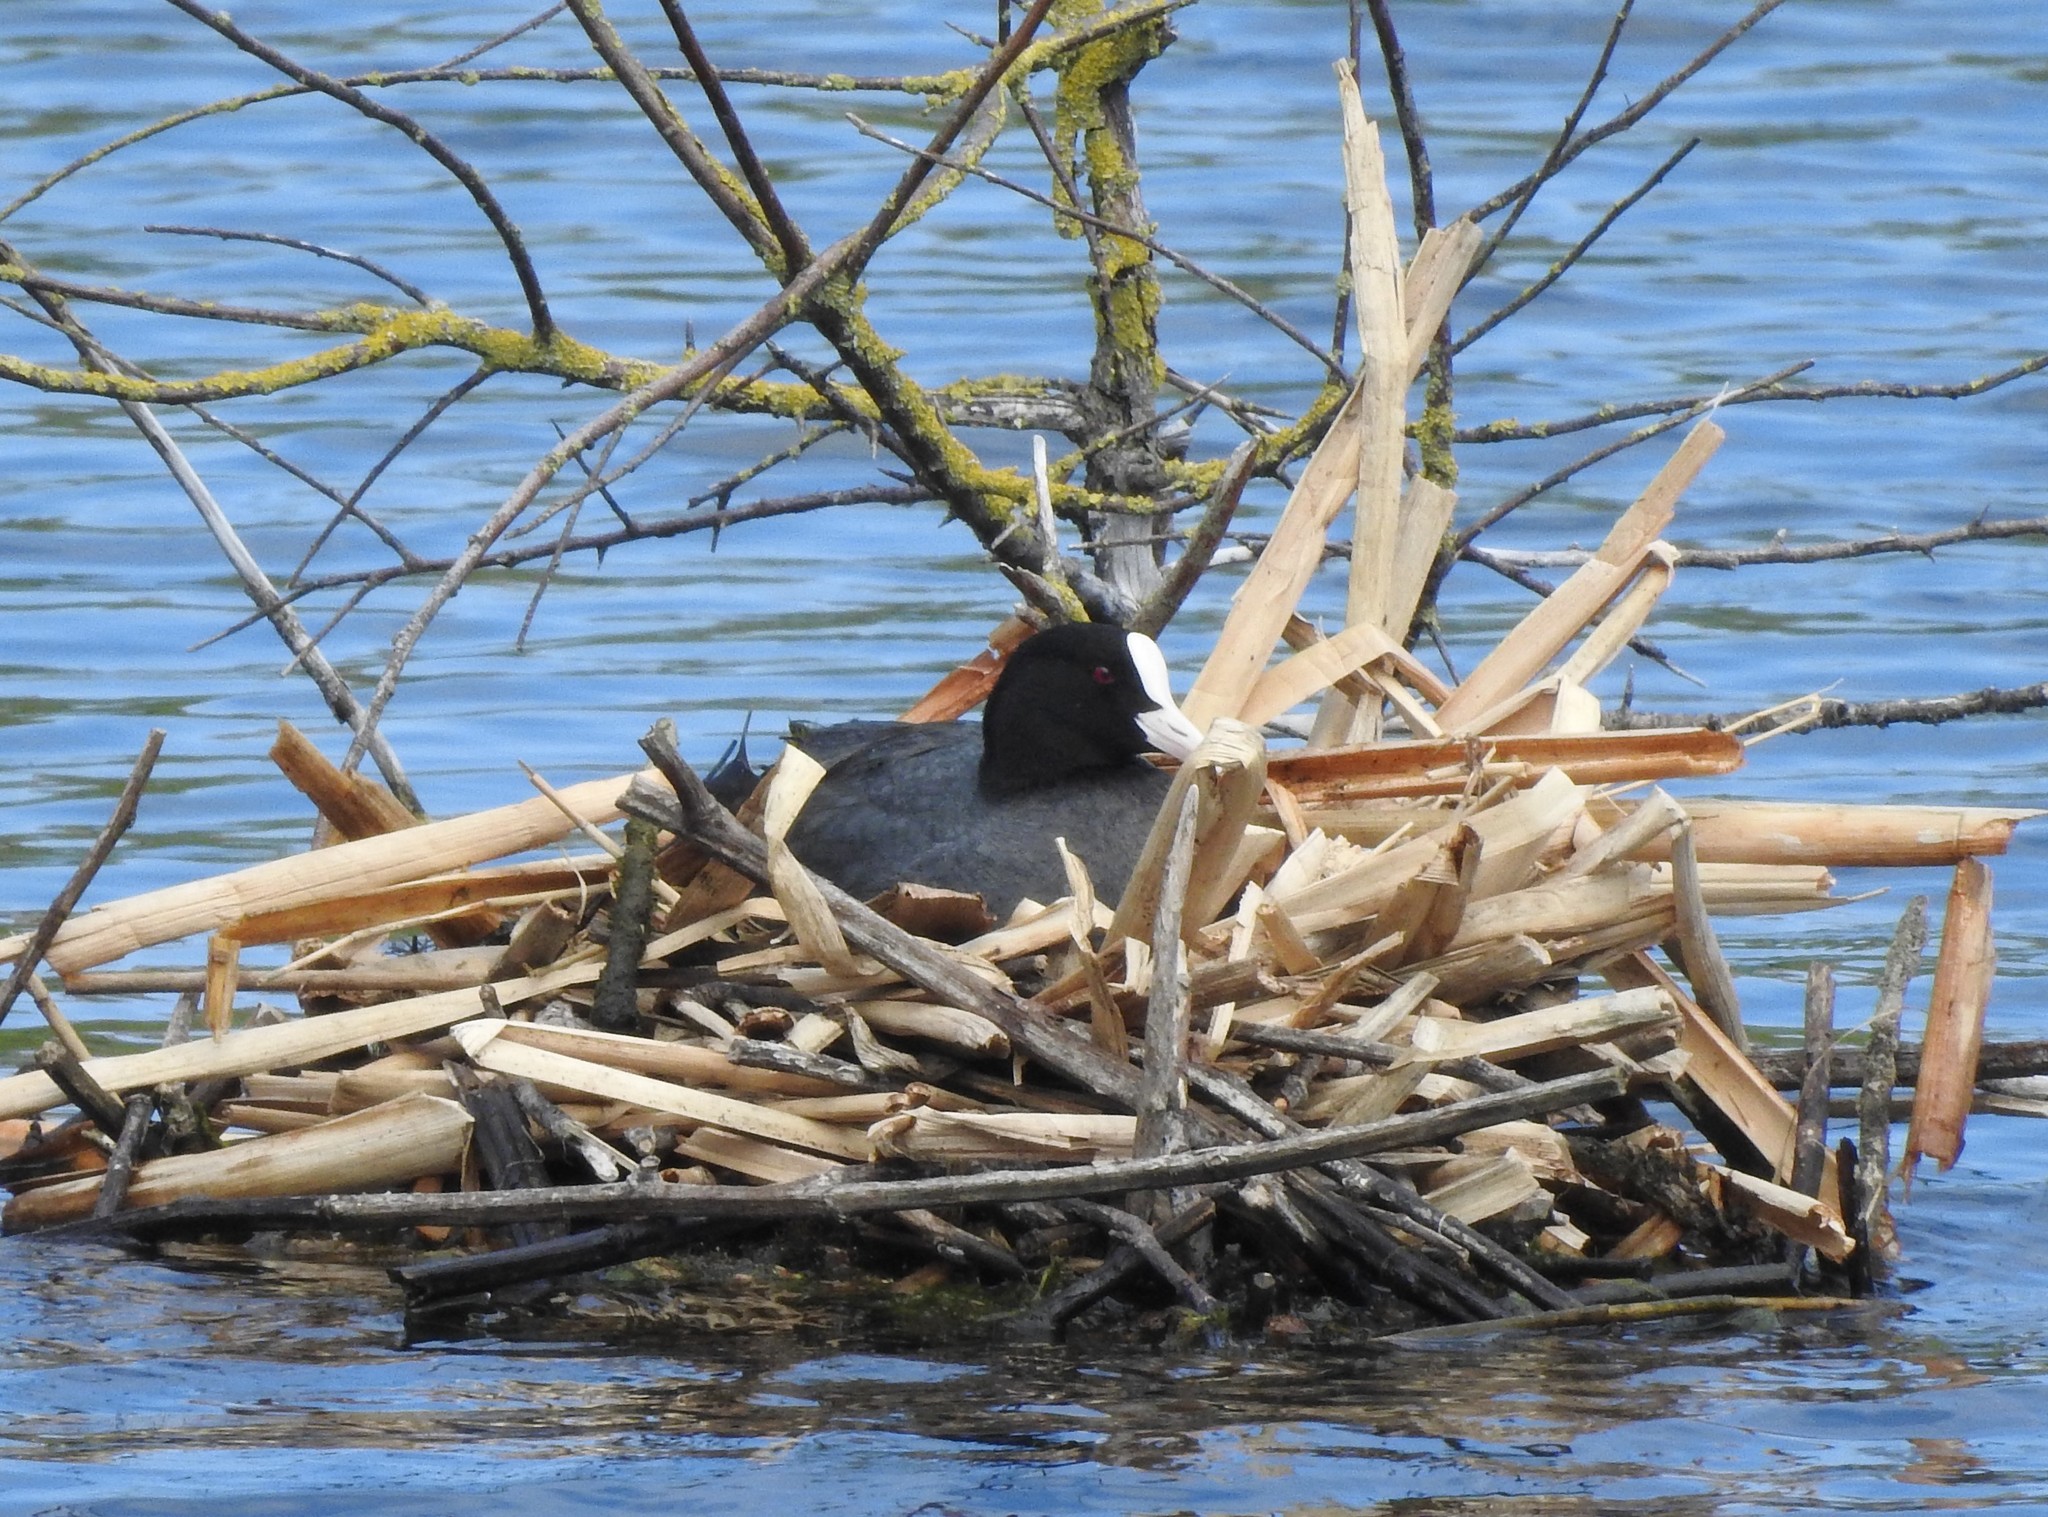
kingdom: Animalia
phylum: Chordata
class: Aves
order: Gruiformes
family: Rallidae
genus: Fulica
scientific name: Fulica atra
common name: Eurasian coot
